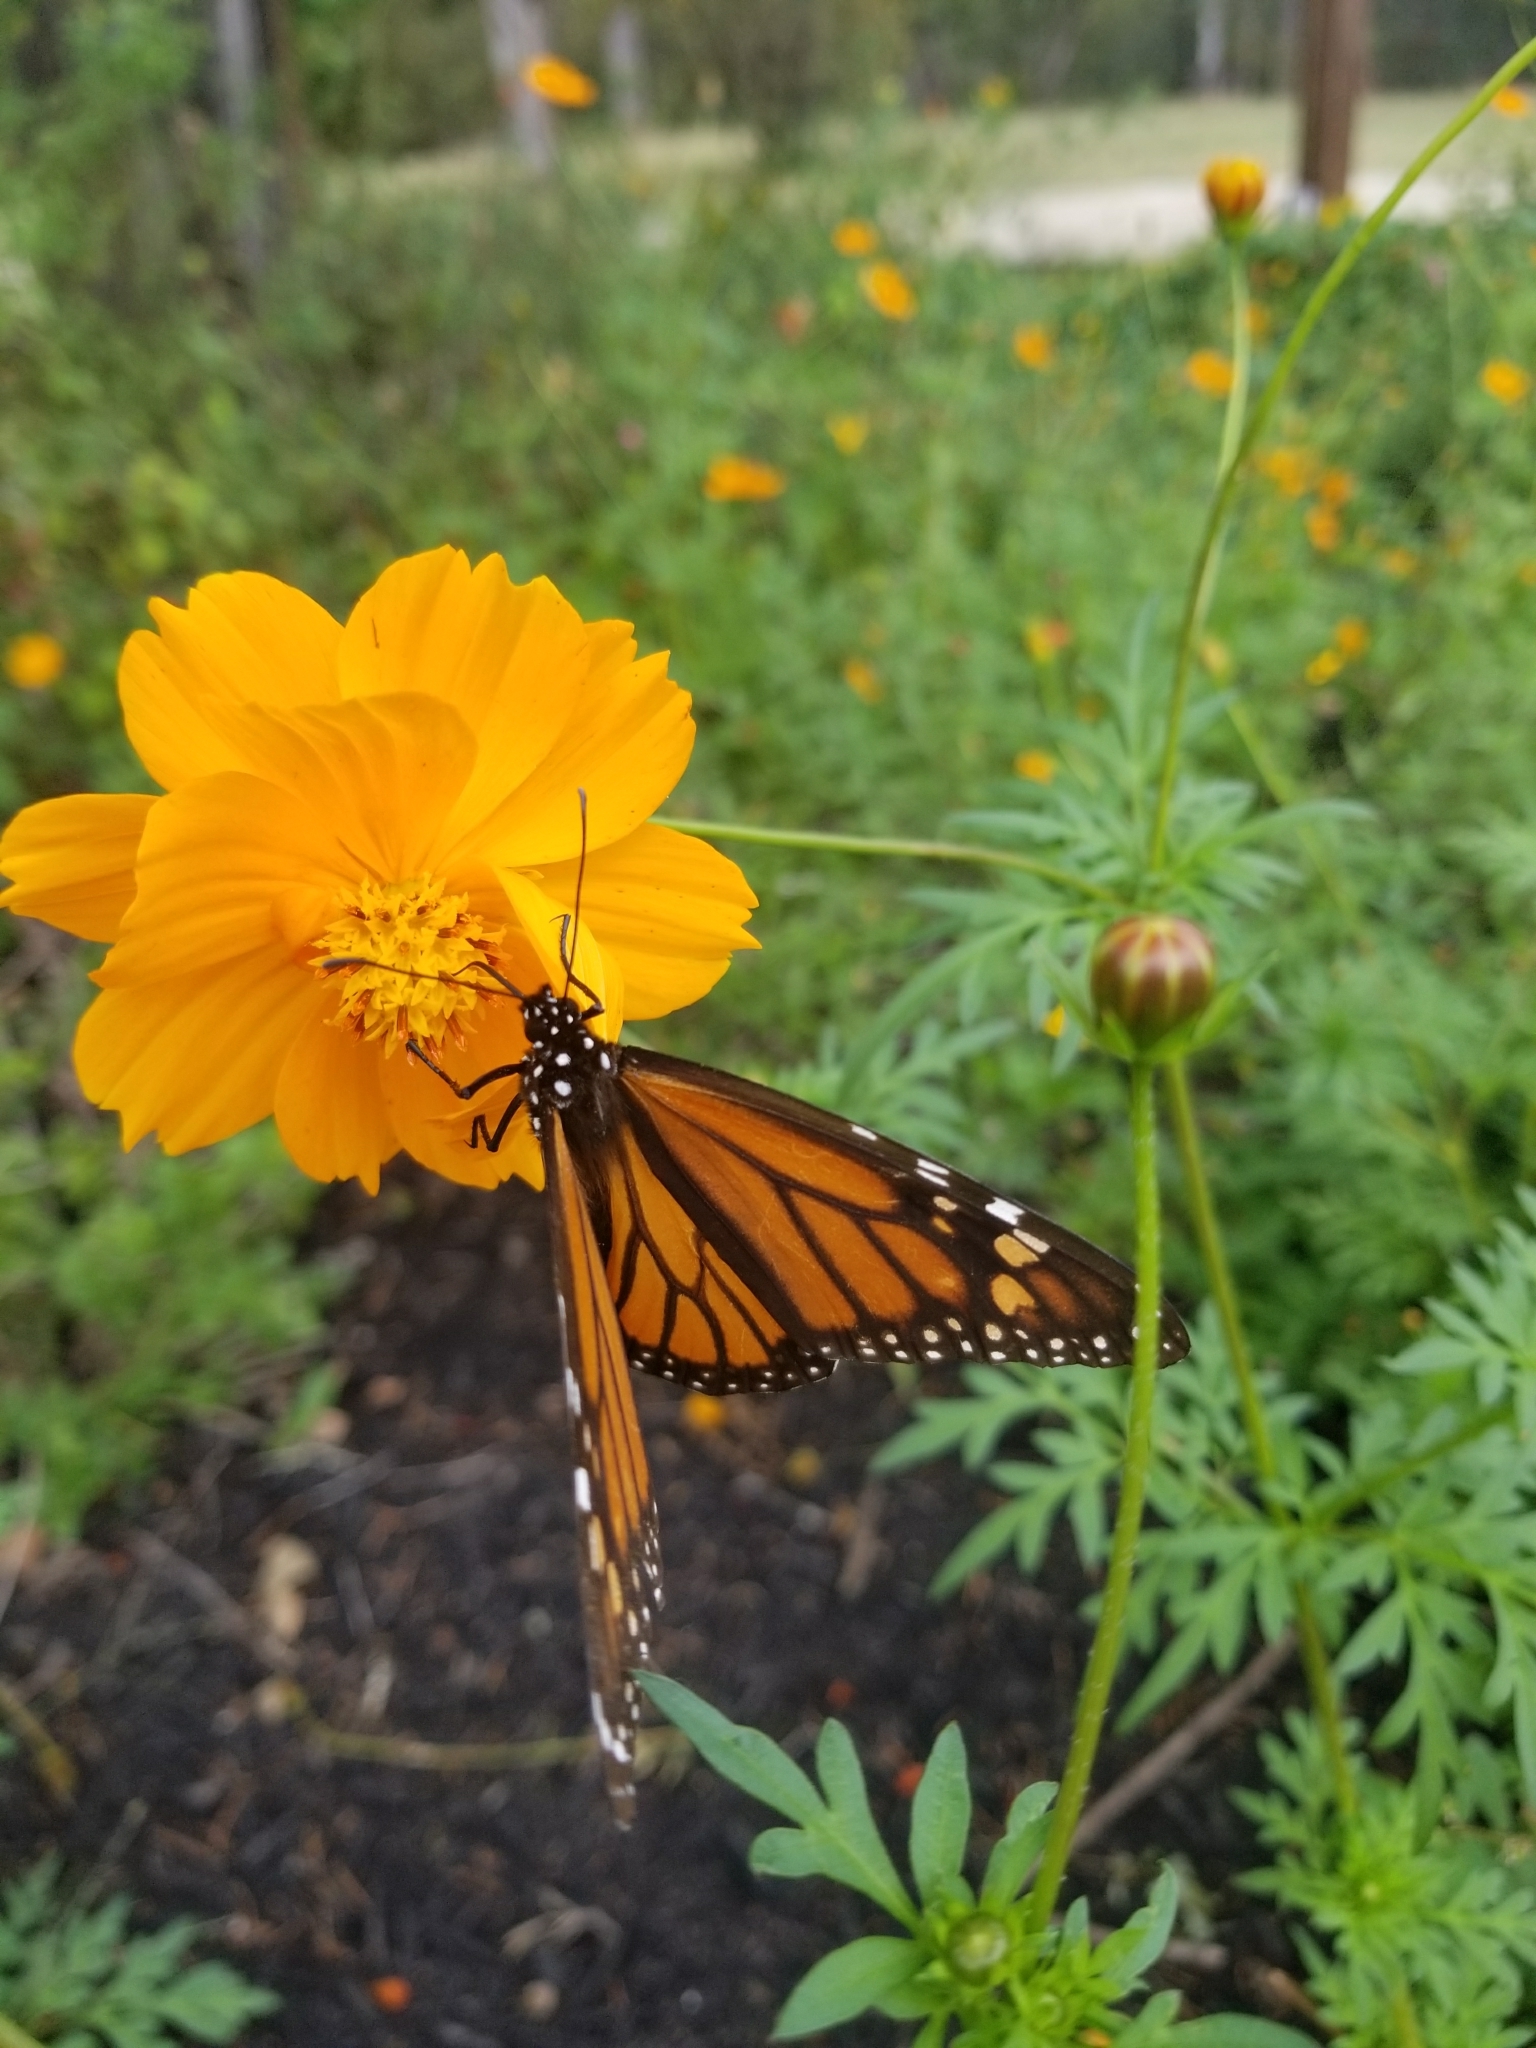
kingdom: Animalia
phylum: Arthropoda
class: Insecta
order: Lepidoptera
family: Nymphalidae
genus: Danaus
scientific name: Danaus plexippus
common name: Monarch
